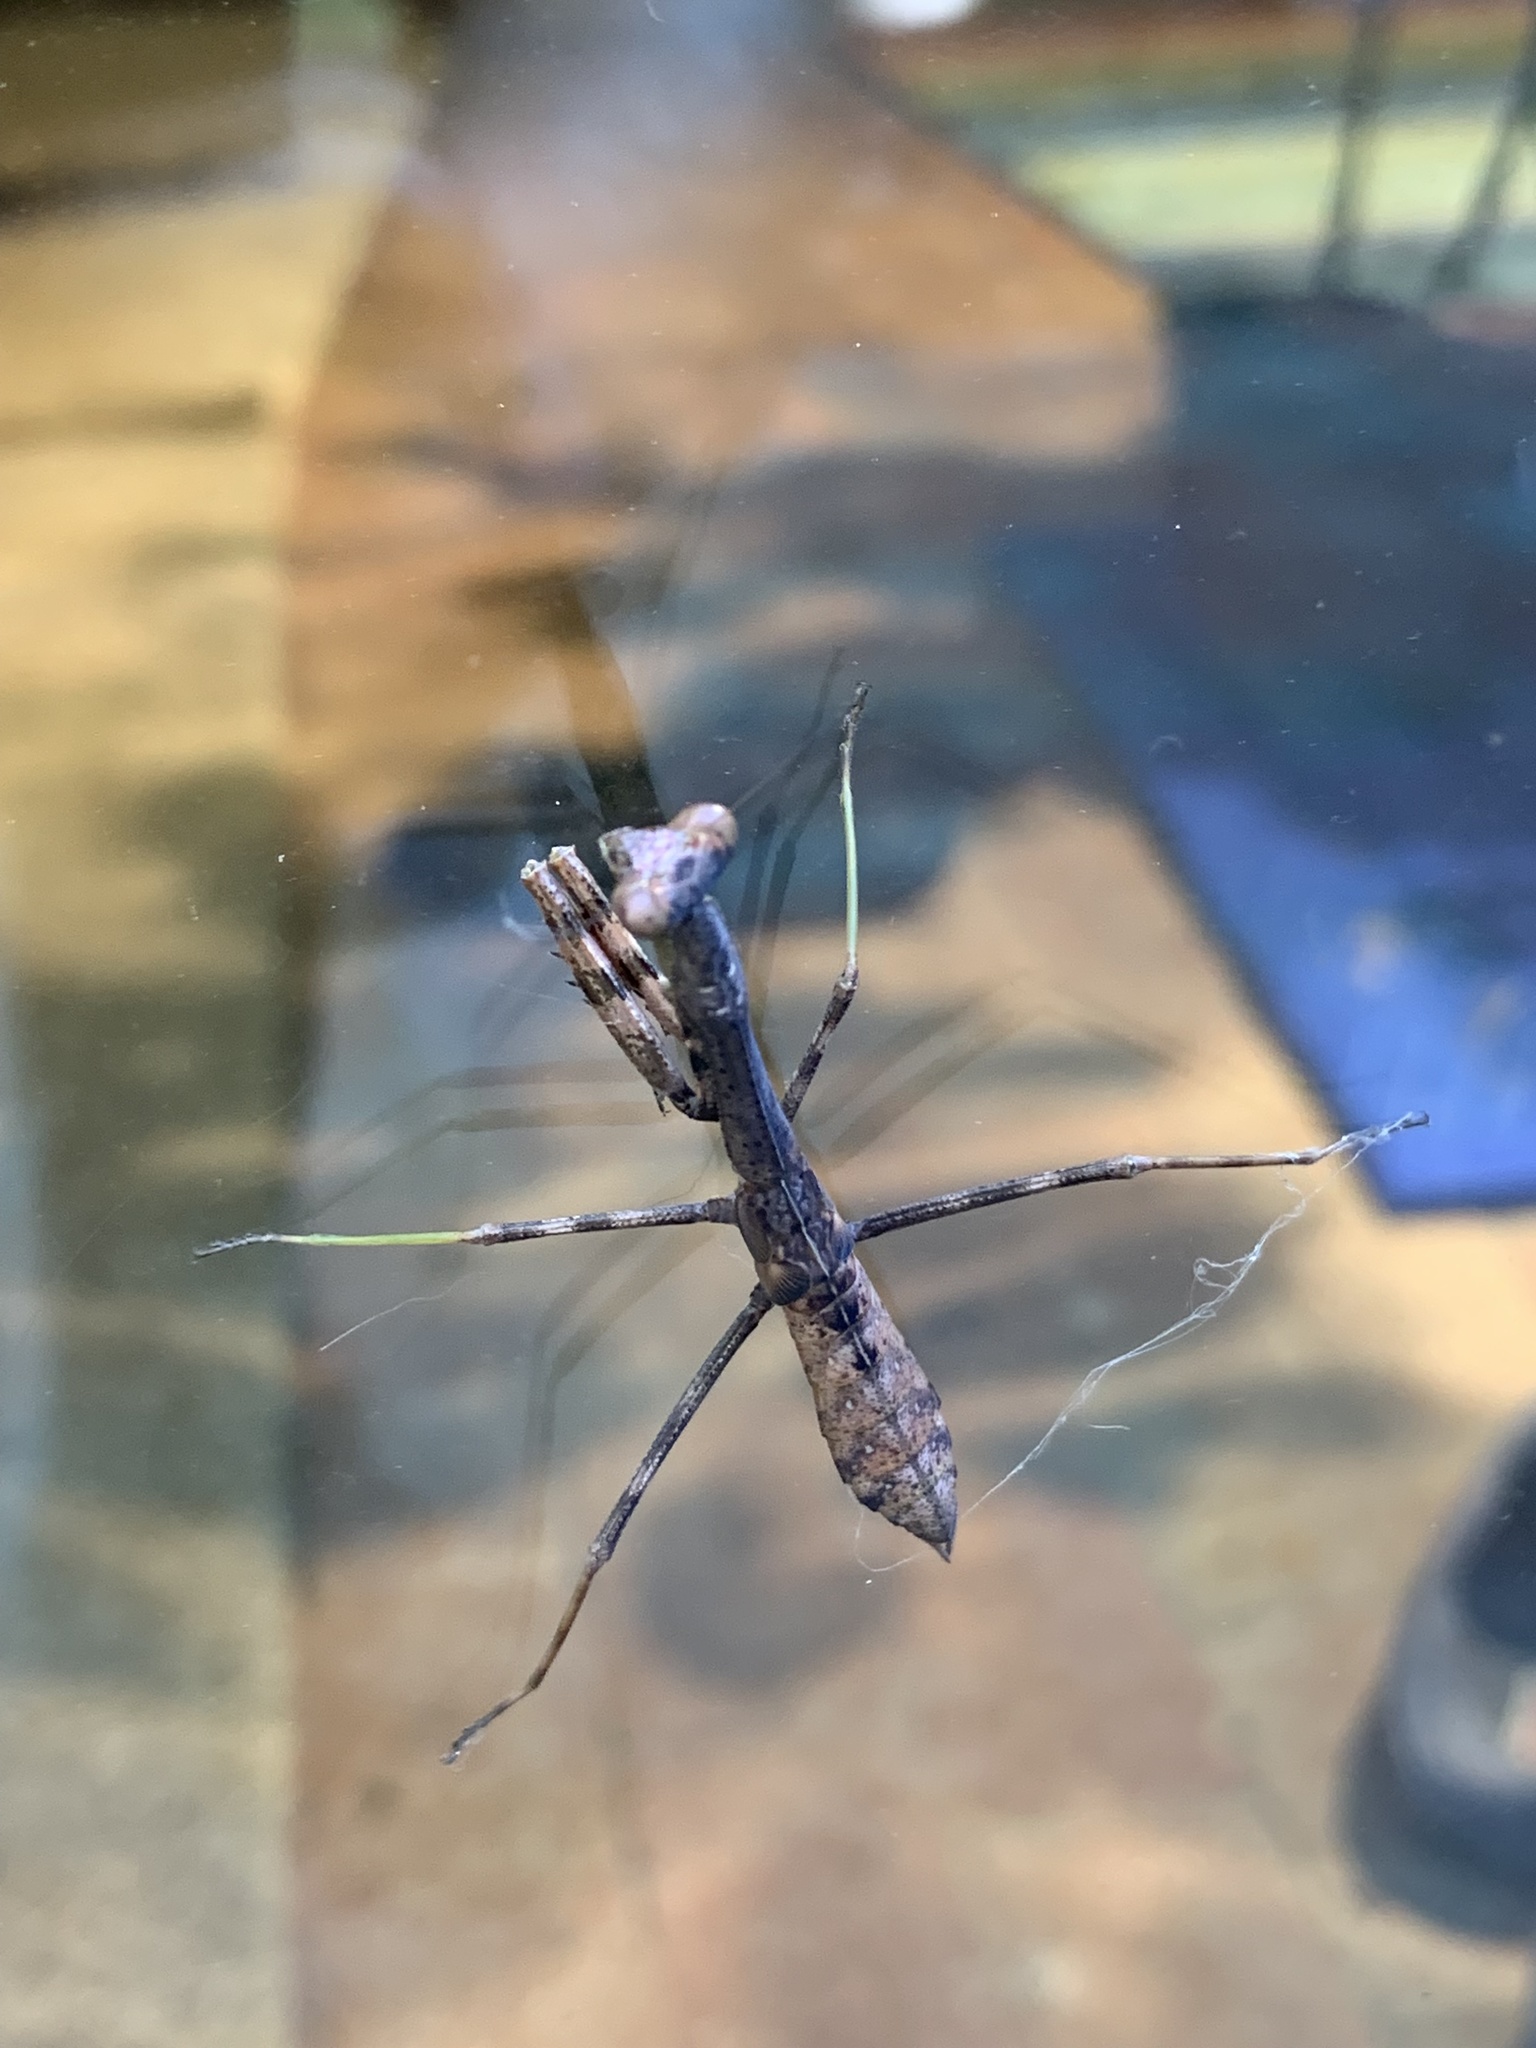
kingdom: Animalia
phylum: Arthropoda
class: Insecta
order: Mantodea
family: Mantidae
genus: Stagmomantis
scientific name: Stagmomantis carolina
